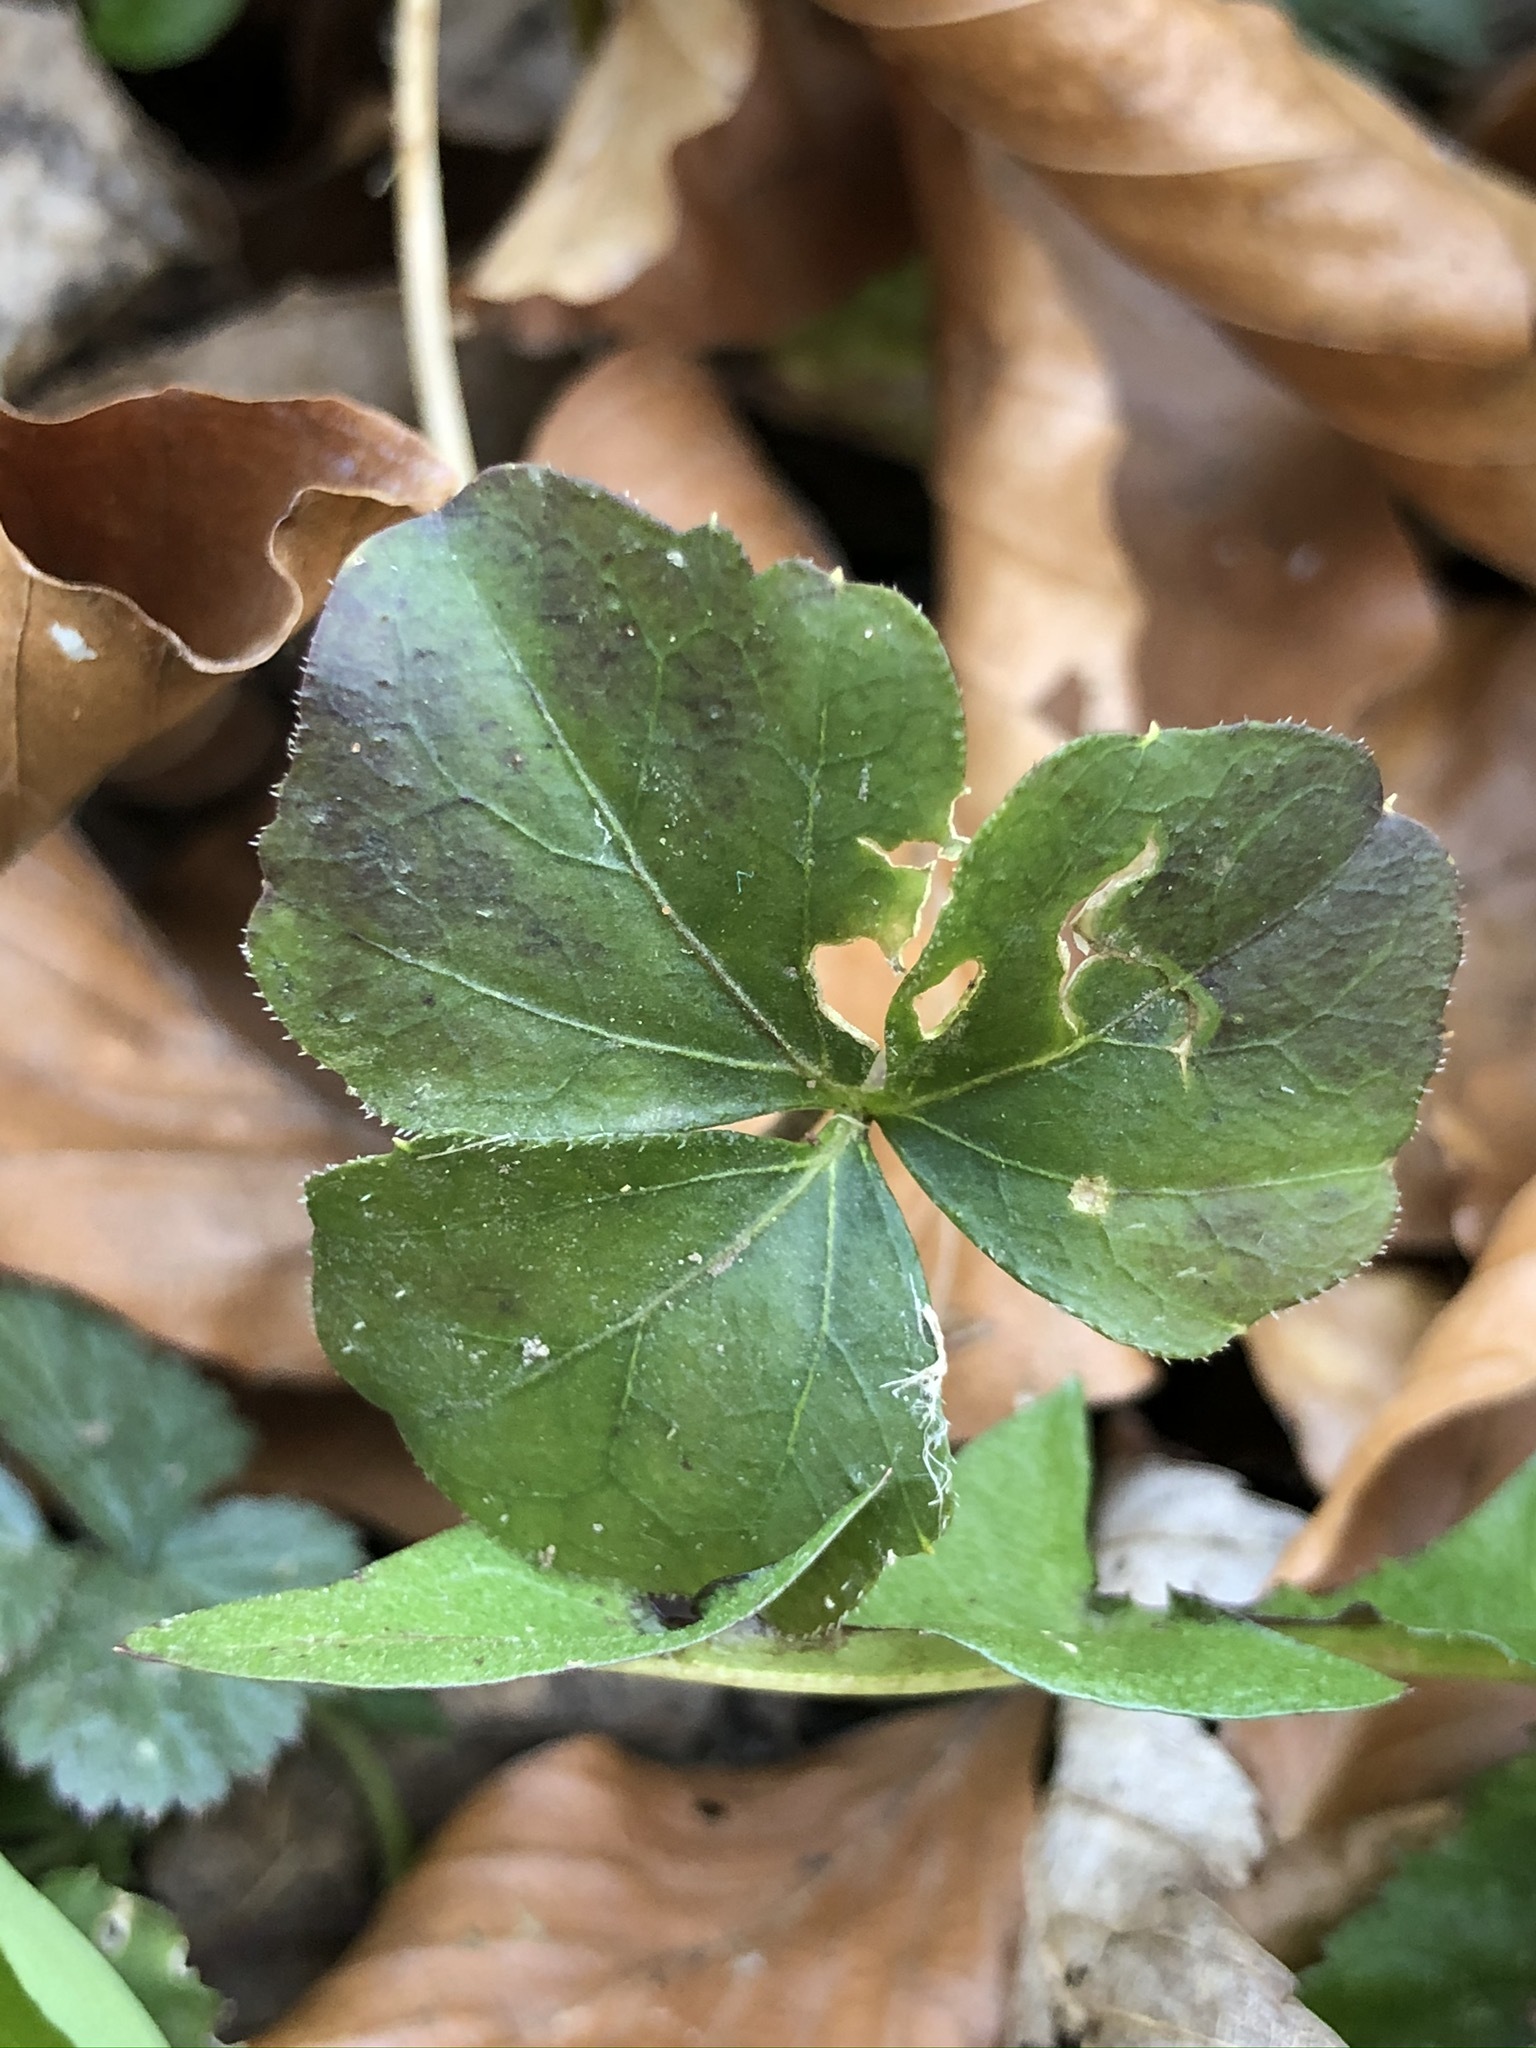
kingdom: Plantae
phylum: Tracheophyta
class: Magnoliopsida
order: Brassicales
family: Brassicaceae
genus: Cardamine
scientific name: Cardamine trifolia
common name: Trefoil cress
